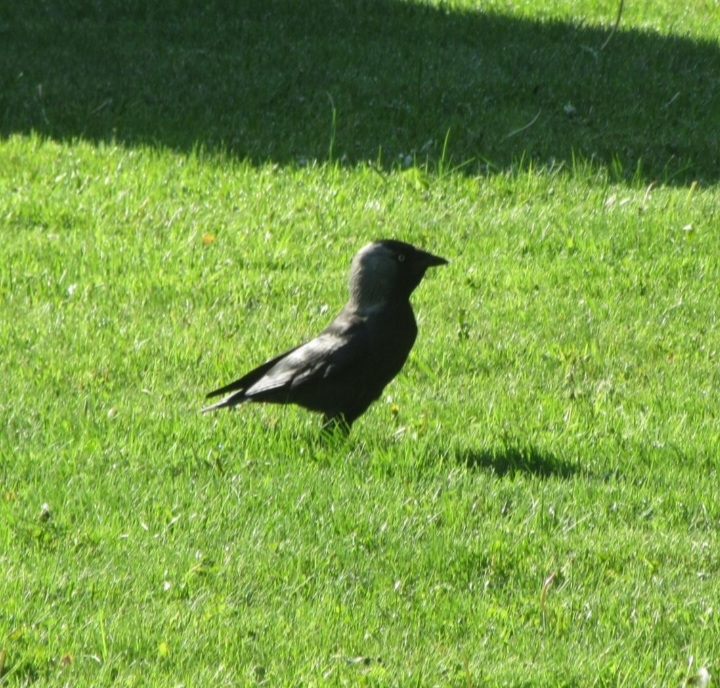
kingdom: Animalia
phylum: Chordata
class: Aves
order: Passeriformes
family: Corvidae
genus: Coloeus
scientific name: Coloeus monedula
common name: Western jackdaw
